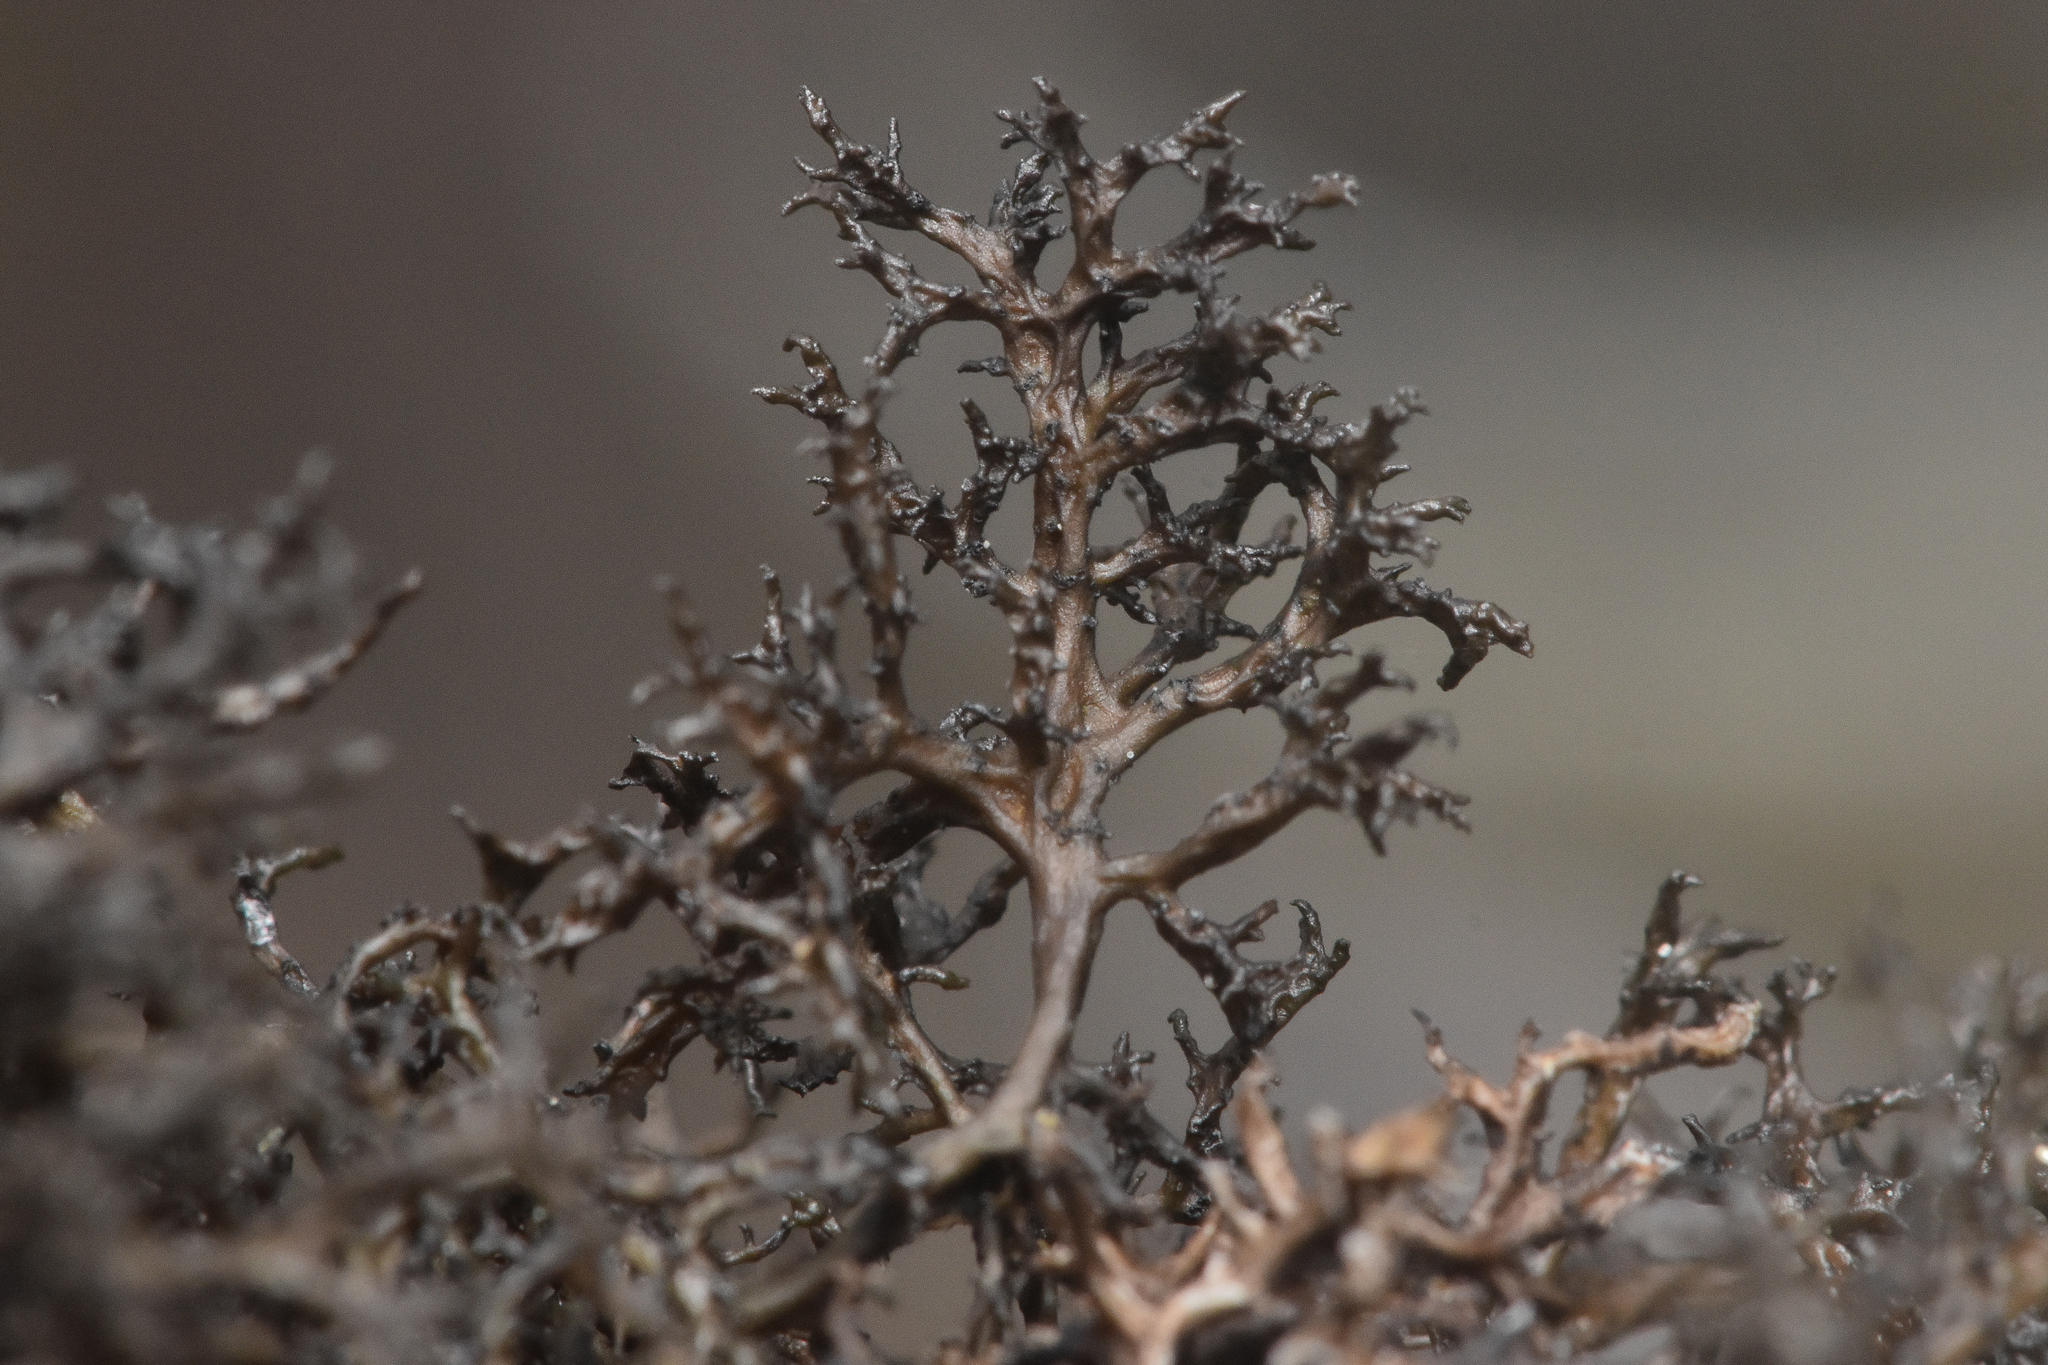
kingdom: Fungi
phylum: Ascomycota
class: Lecanoromycetes
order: Lecanorales
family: Parmeliaceae
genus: Nephromopsis
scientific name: Nephromopsis tuckermanii
